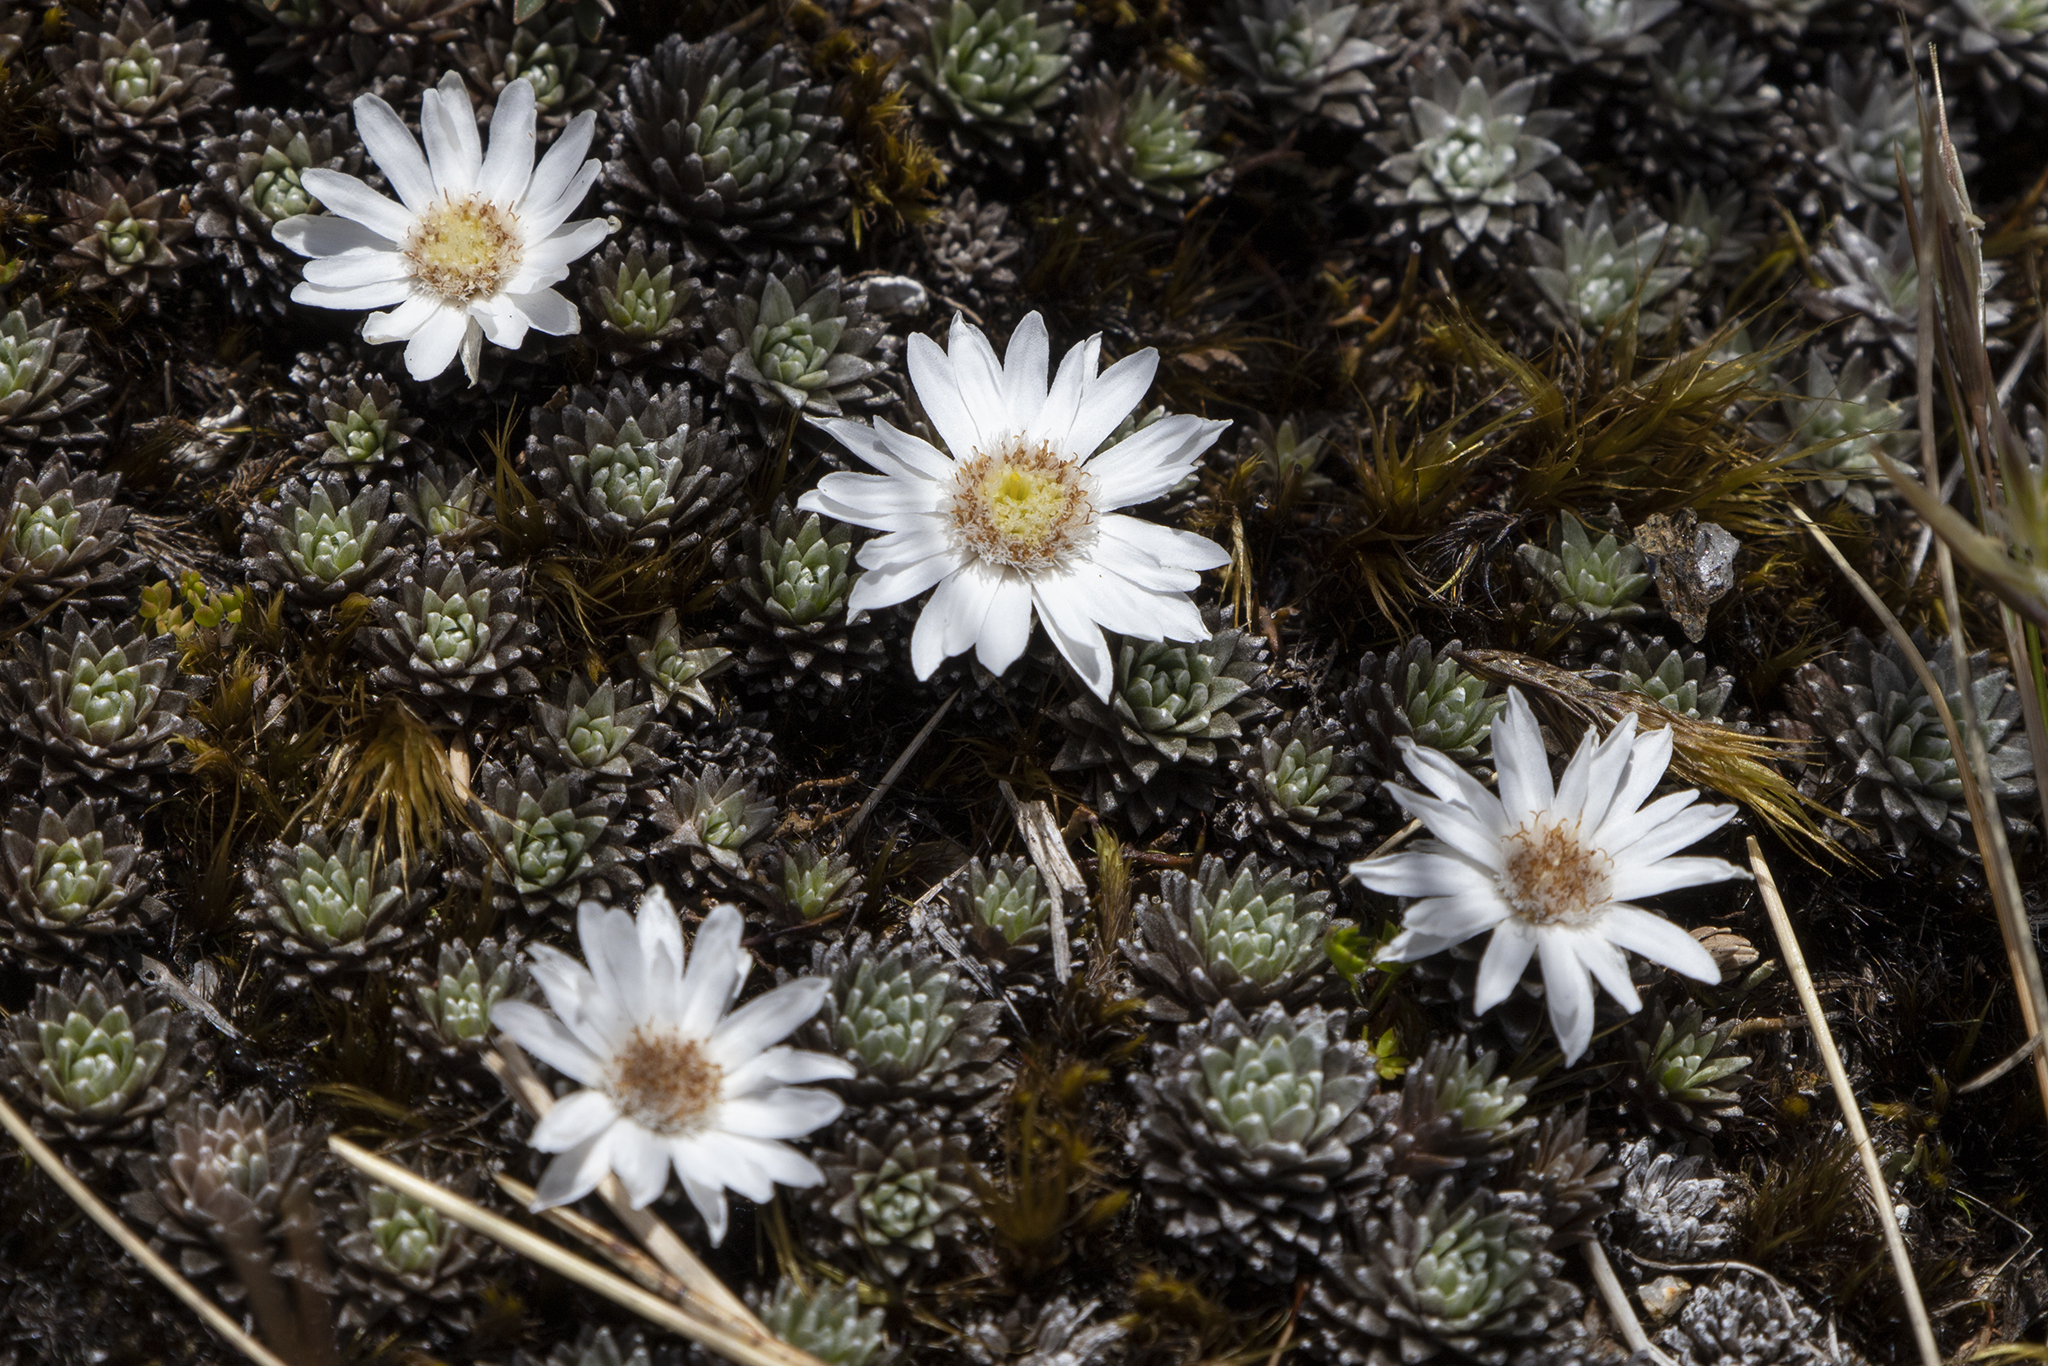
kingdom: Plantae
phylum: Tracheophyta
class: Magnoliopsida
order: Asterales
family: Asteraceae
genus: Raoulia
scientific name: Raoulia grandiflora
